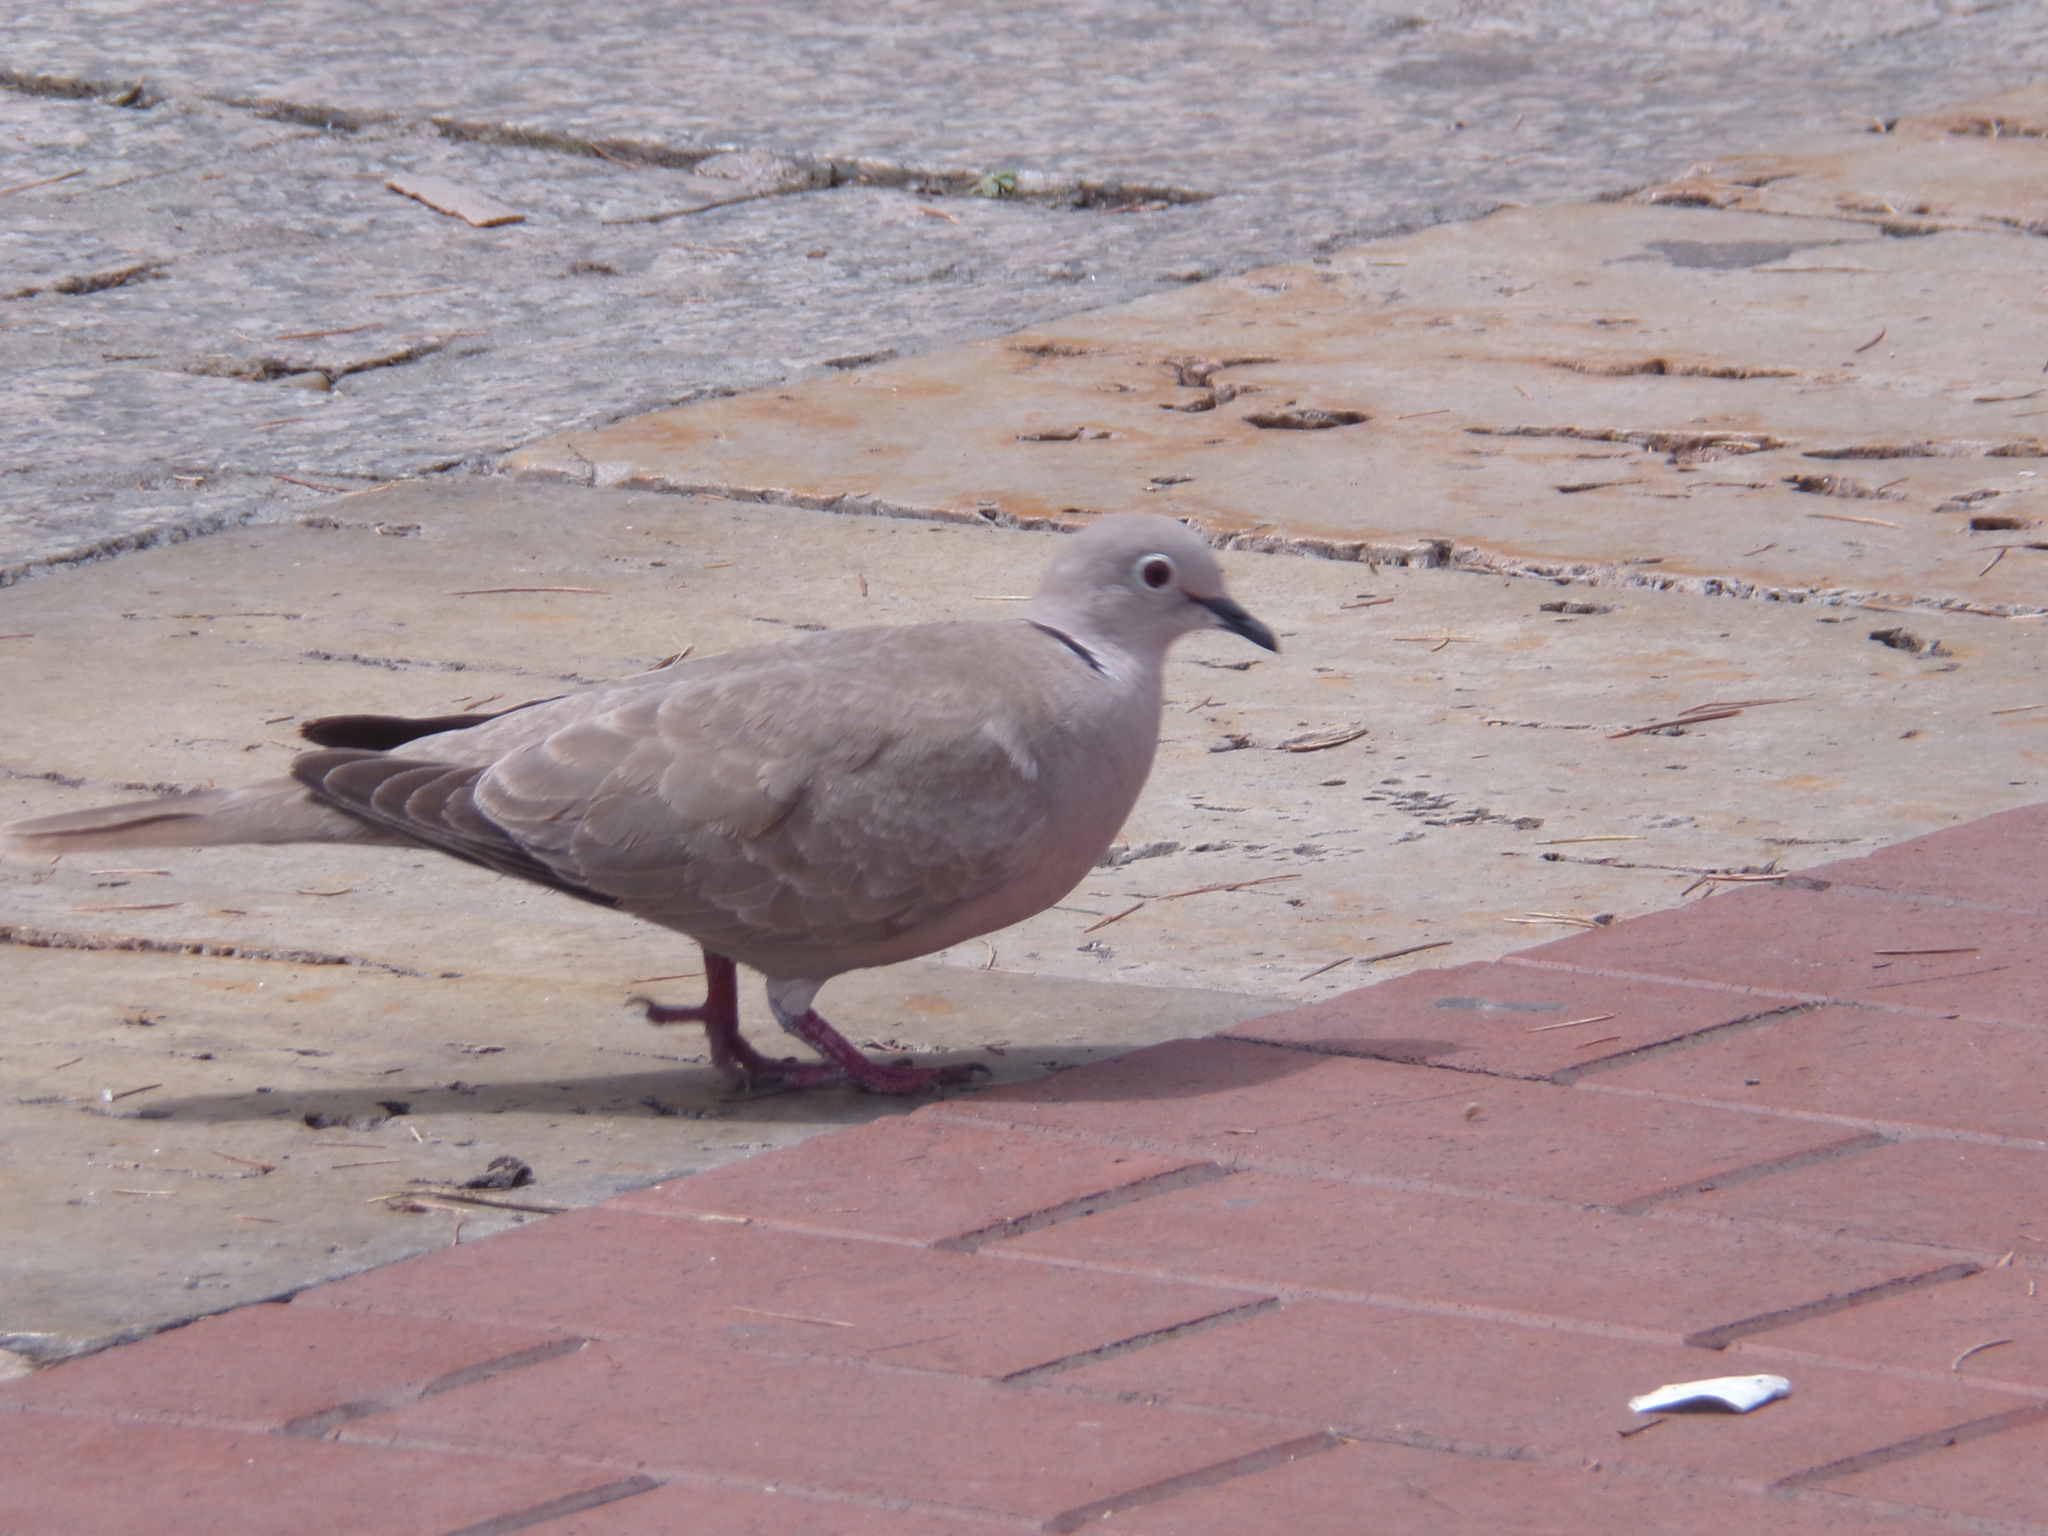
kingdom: Animalia
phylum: Chordata
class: Aves
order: Columbiformes
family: Columbidae
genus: Streptopelia
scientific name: Streptopelia decaocto
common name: Eurasian collared dove
